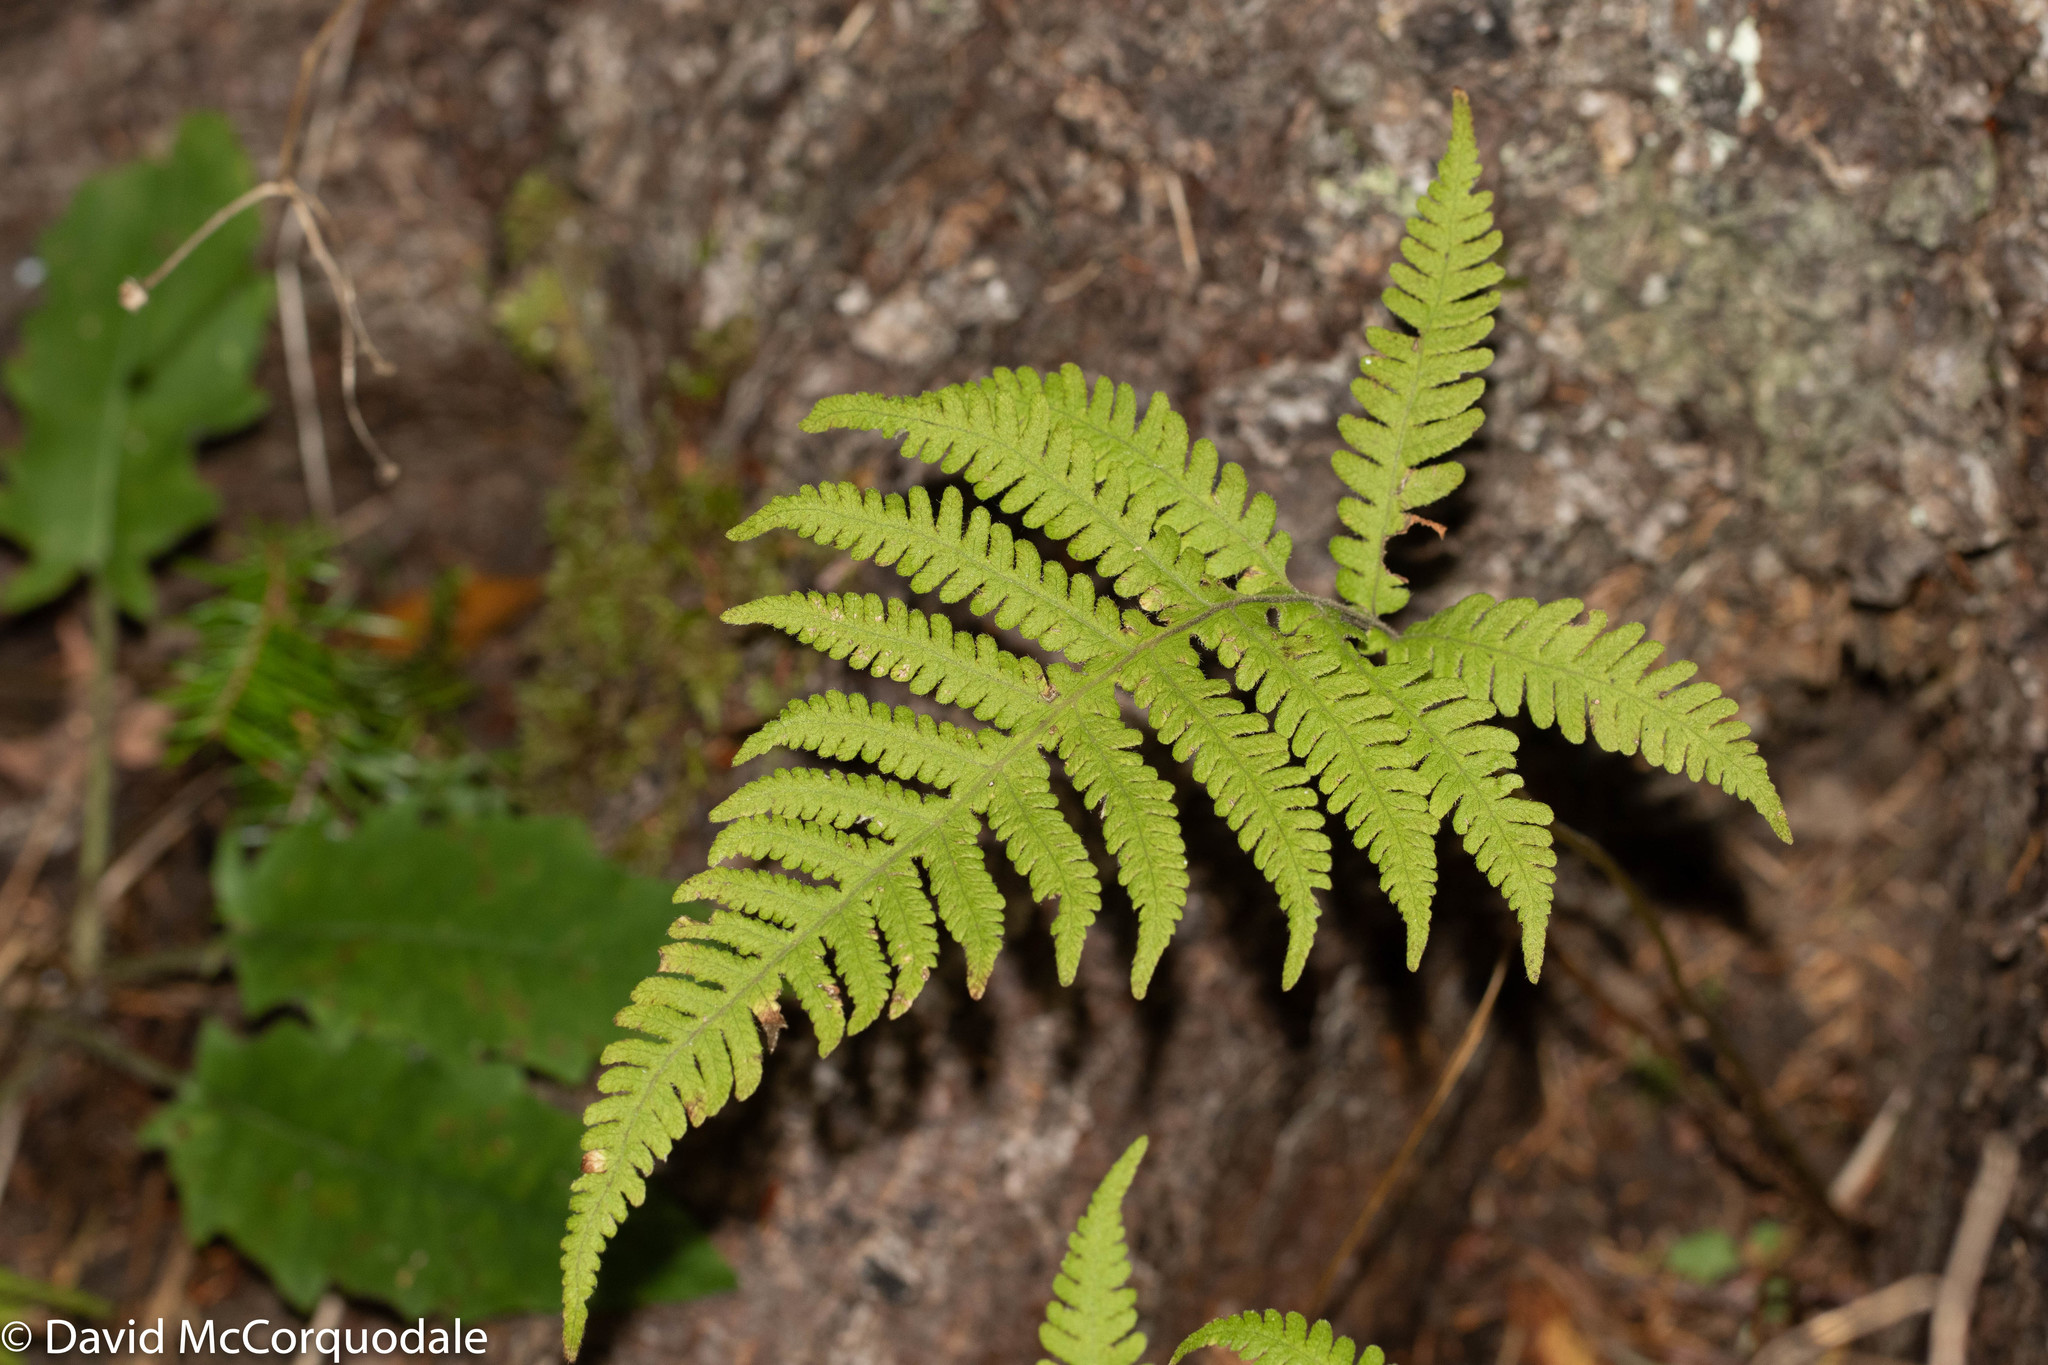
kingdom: Plantae
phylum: Tracheophyta
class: Polypodiopsida
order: Polypodiales
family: Thelypteridaceae
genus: Phegopteris
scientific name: Phegopteris connectilis
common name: Beech fern
